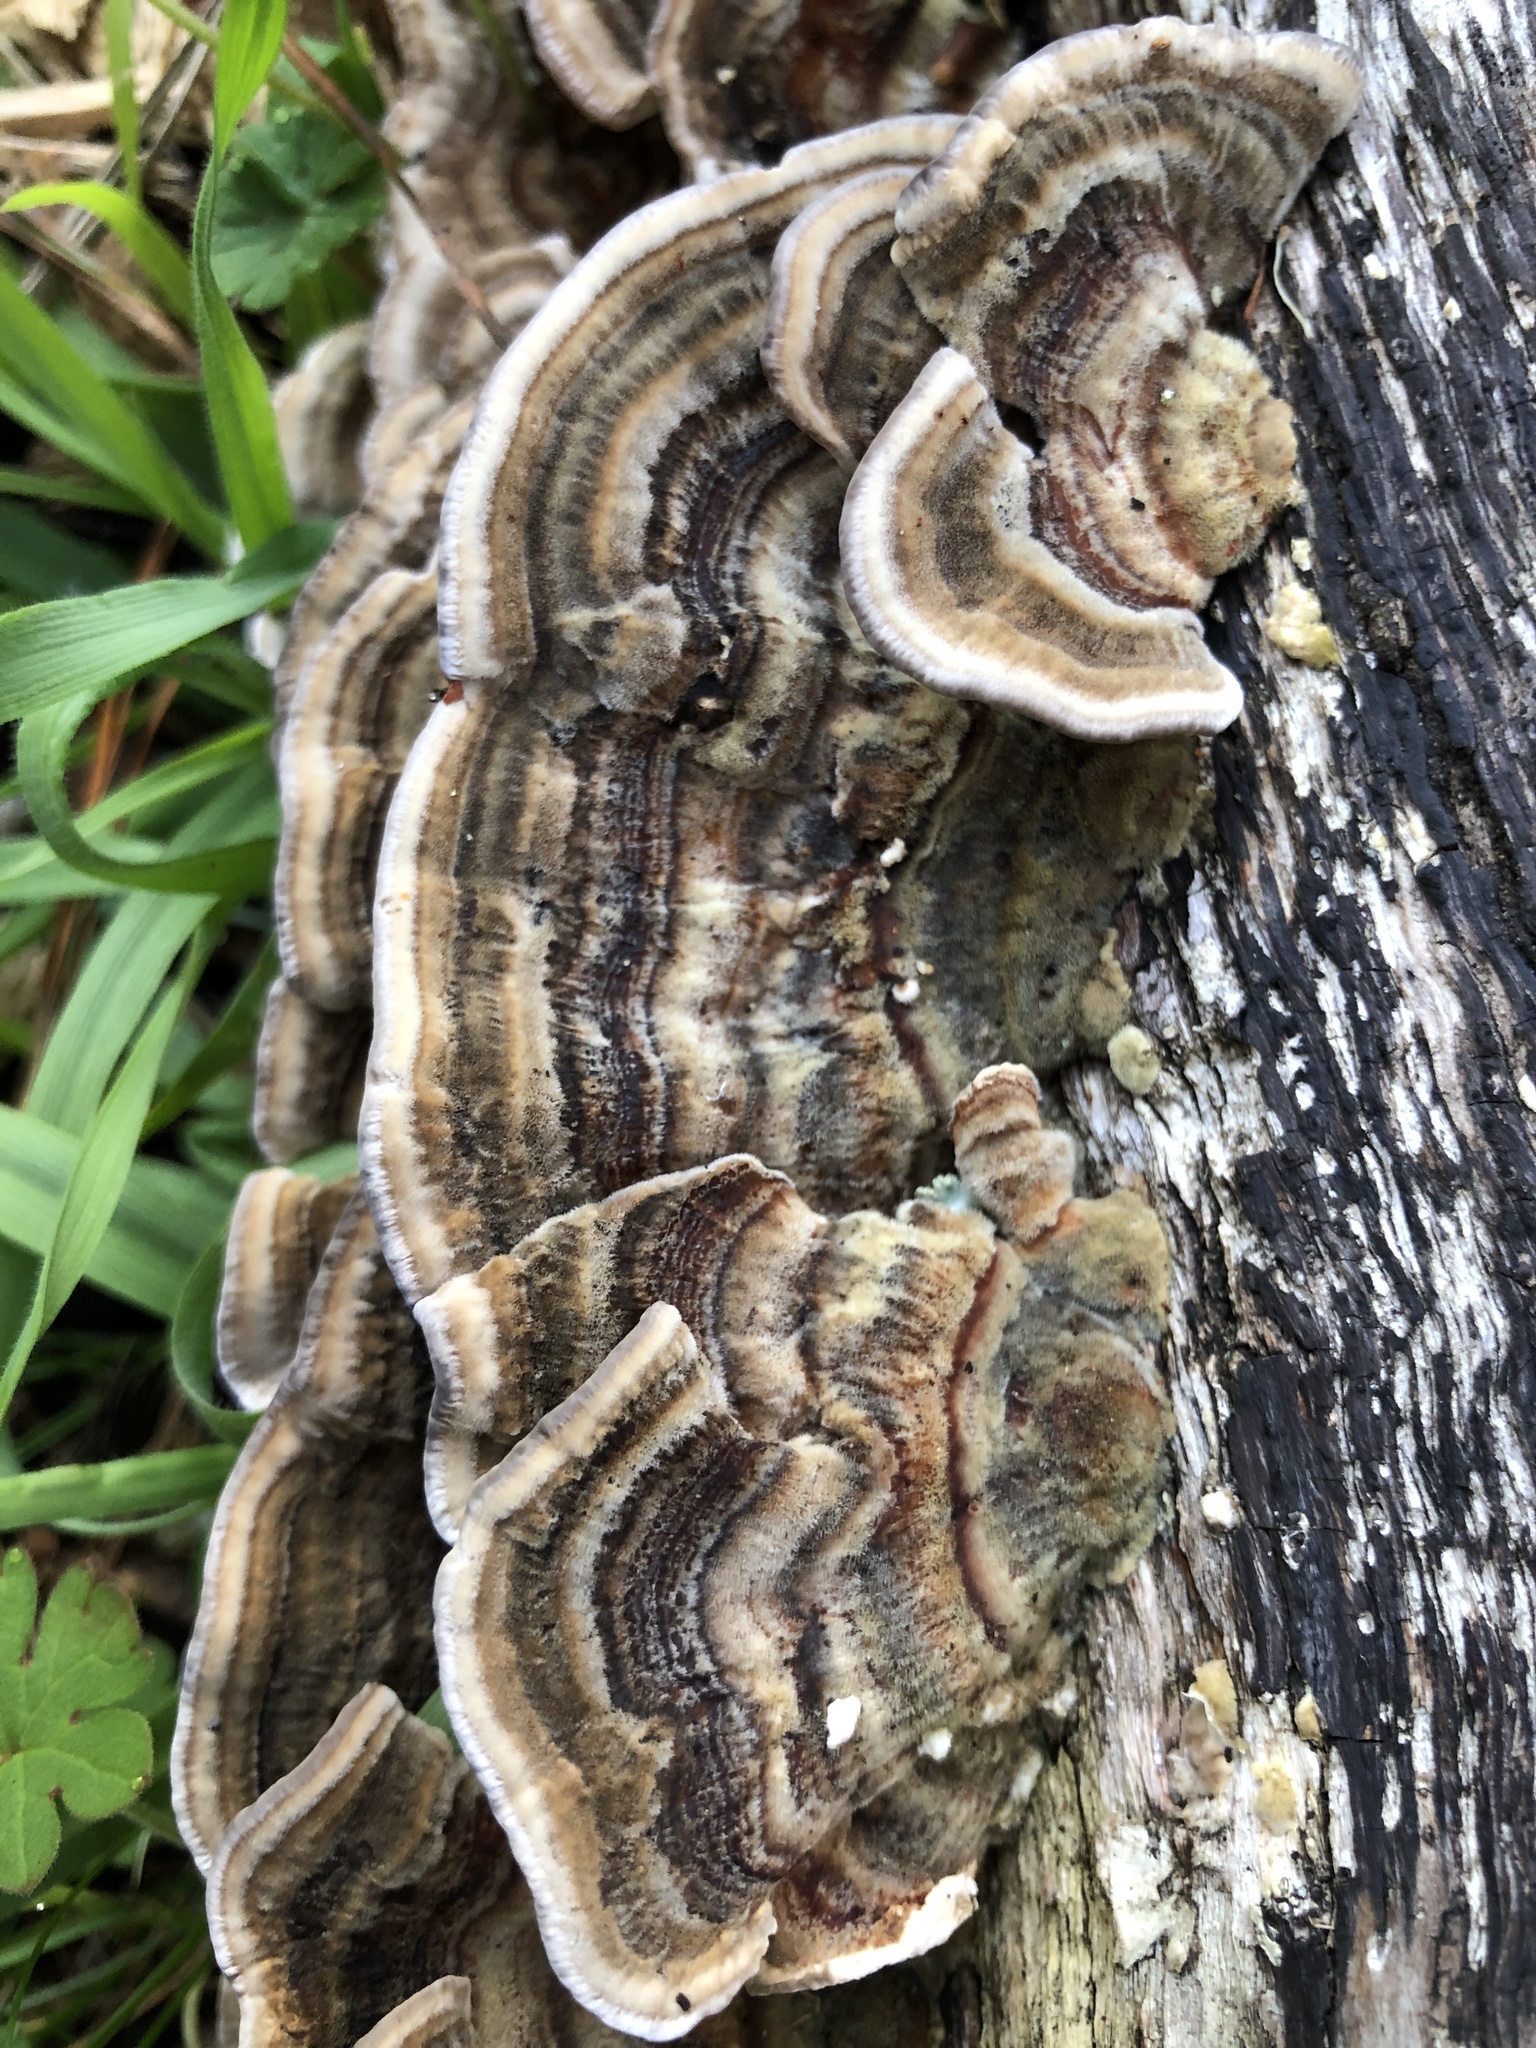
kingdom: Fungi
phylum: Basidiomycota
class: Agaricomycetes
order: Polyporales
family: Polyporaceae
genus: Trametes
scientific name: Trametes versicolor
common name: Turkeytail
